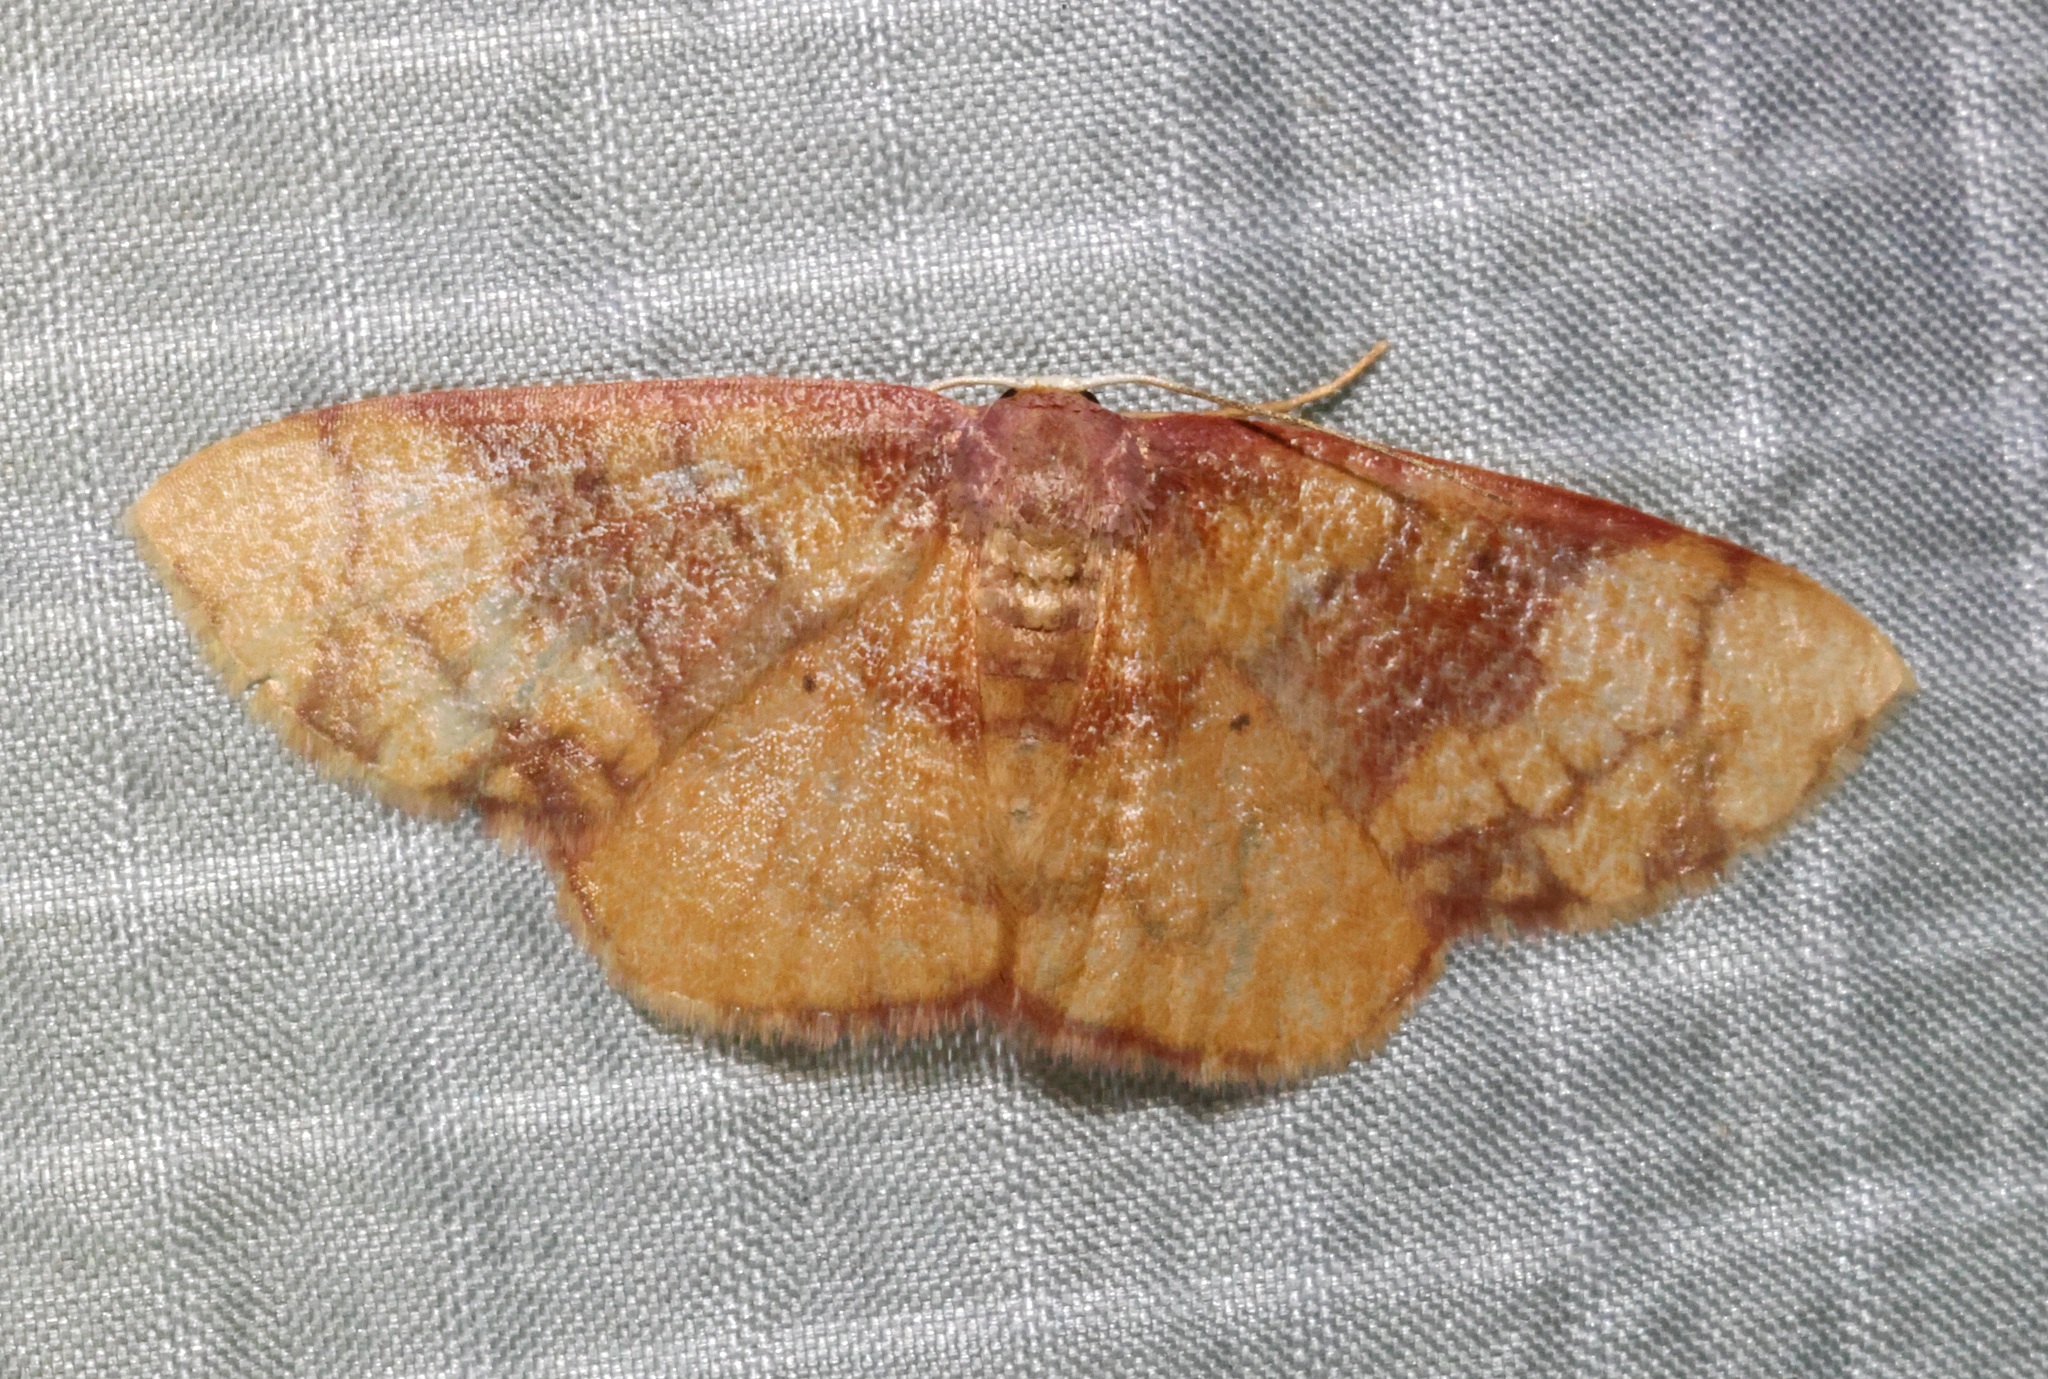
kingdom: Animalia
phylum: Arthropoda
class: Insecta
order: Lepidoptera
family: Geometridae
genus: Metallaxis
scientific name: Metallaxis
